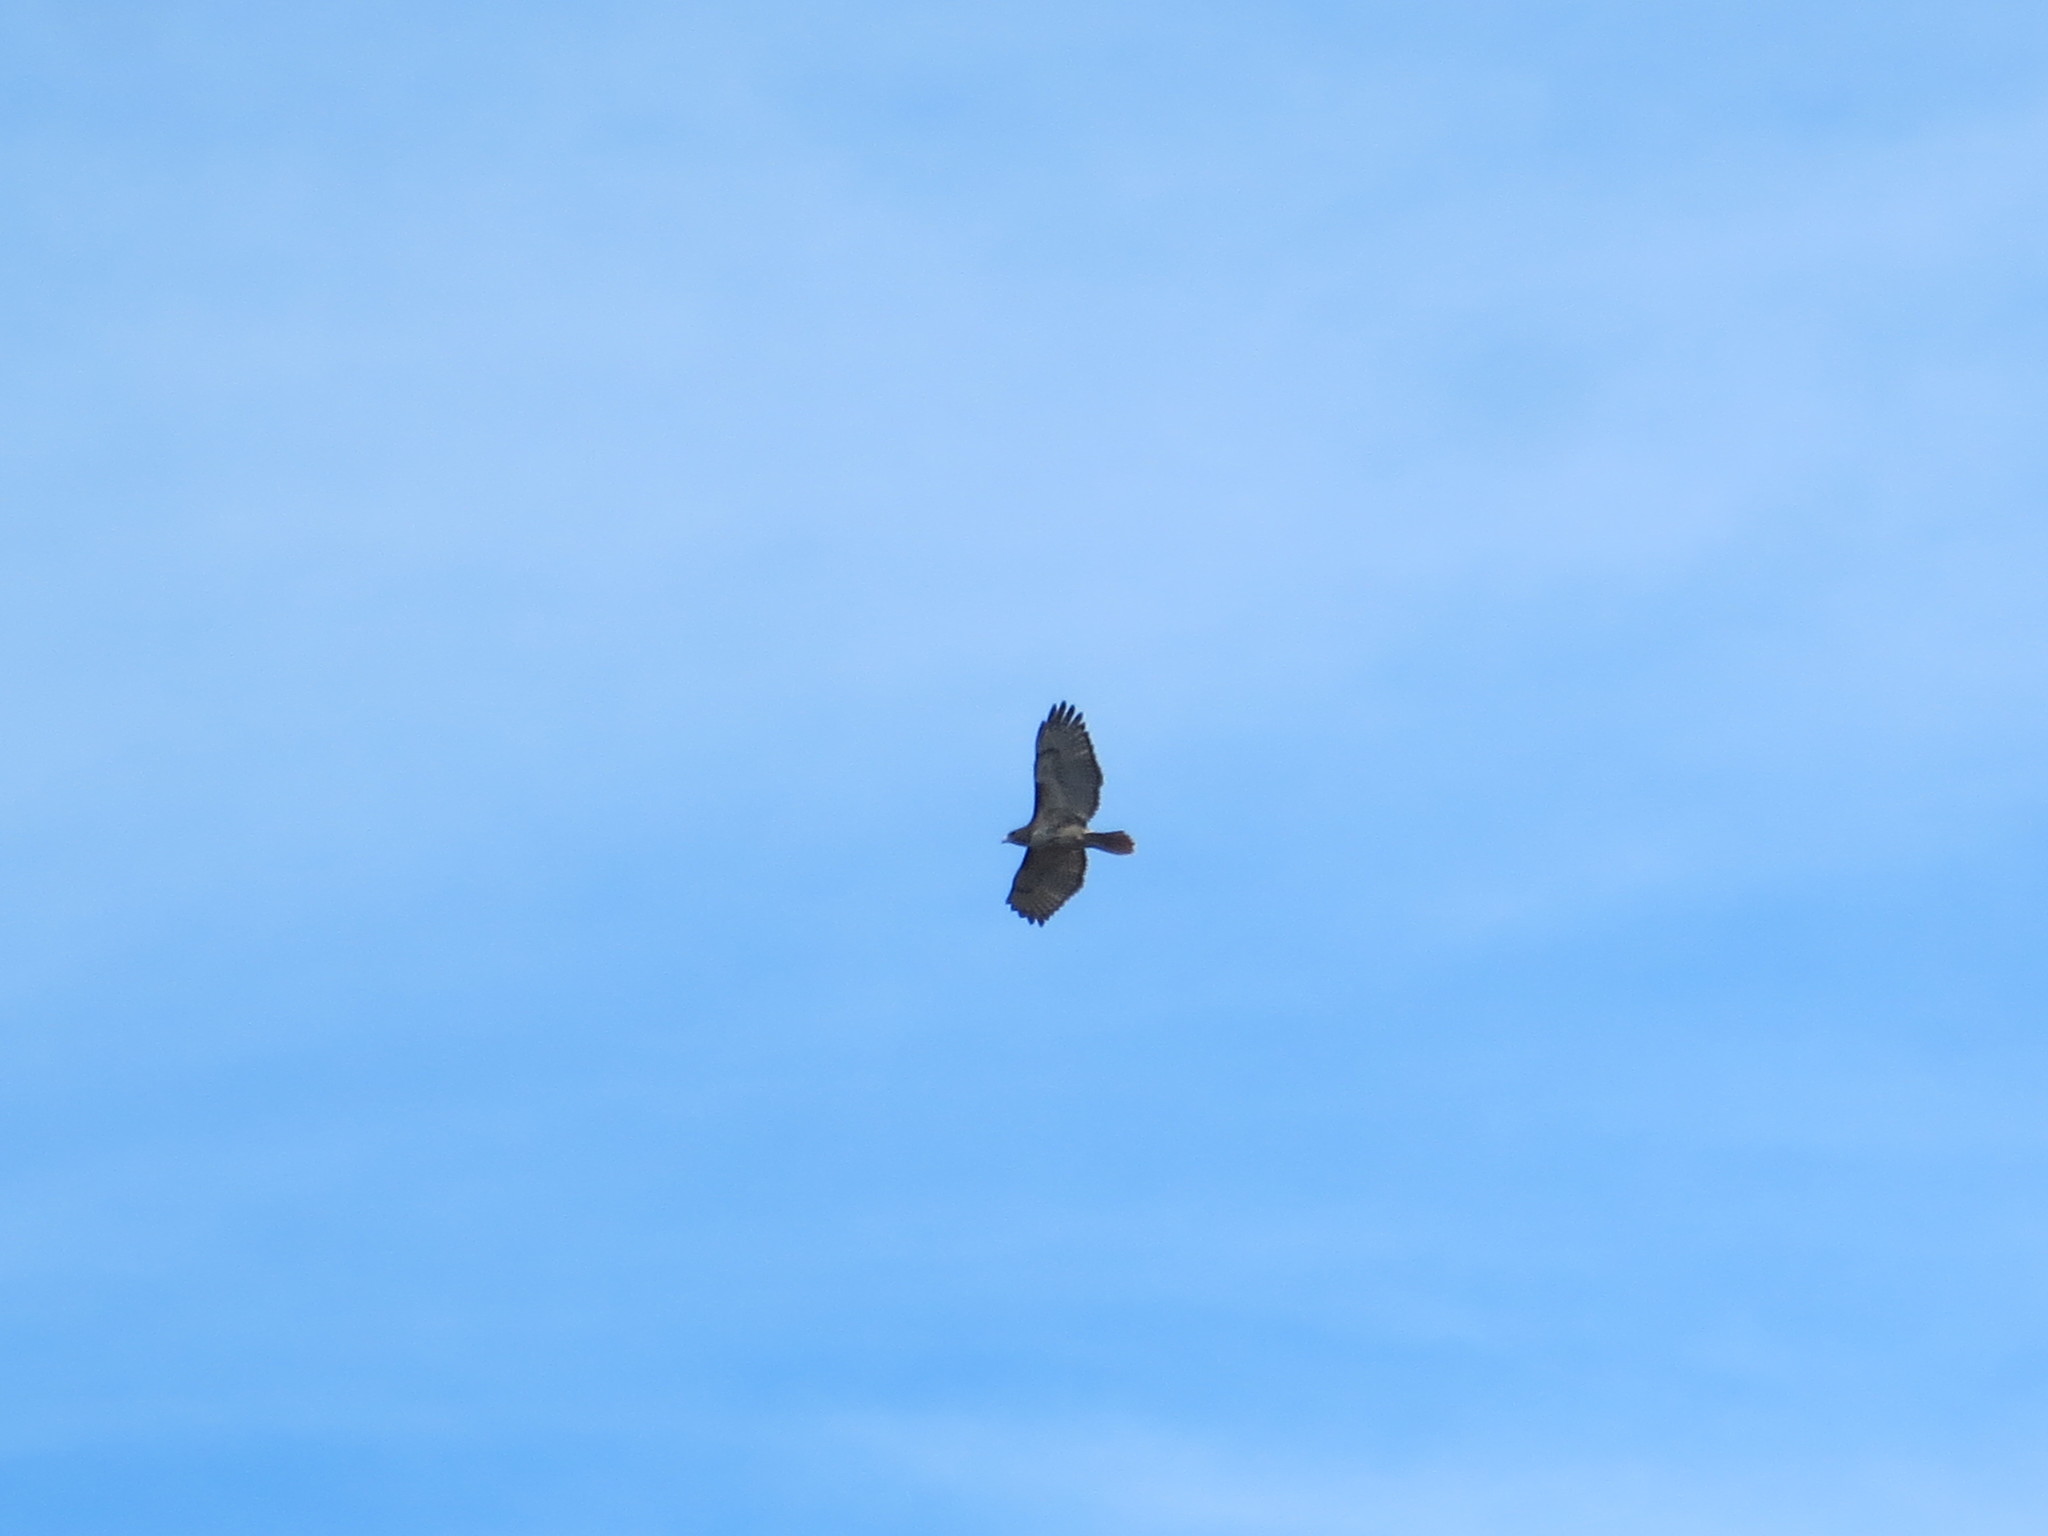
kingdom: Animalia
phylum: Chordata
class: Aves
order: Accipitriformes
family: Accipitridae
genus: Buteo
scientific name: Buteo jamaicensis
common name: Red-tailed hawk
